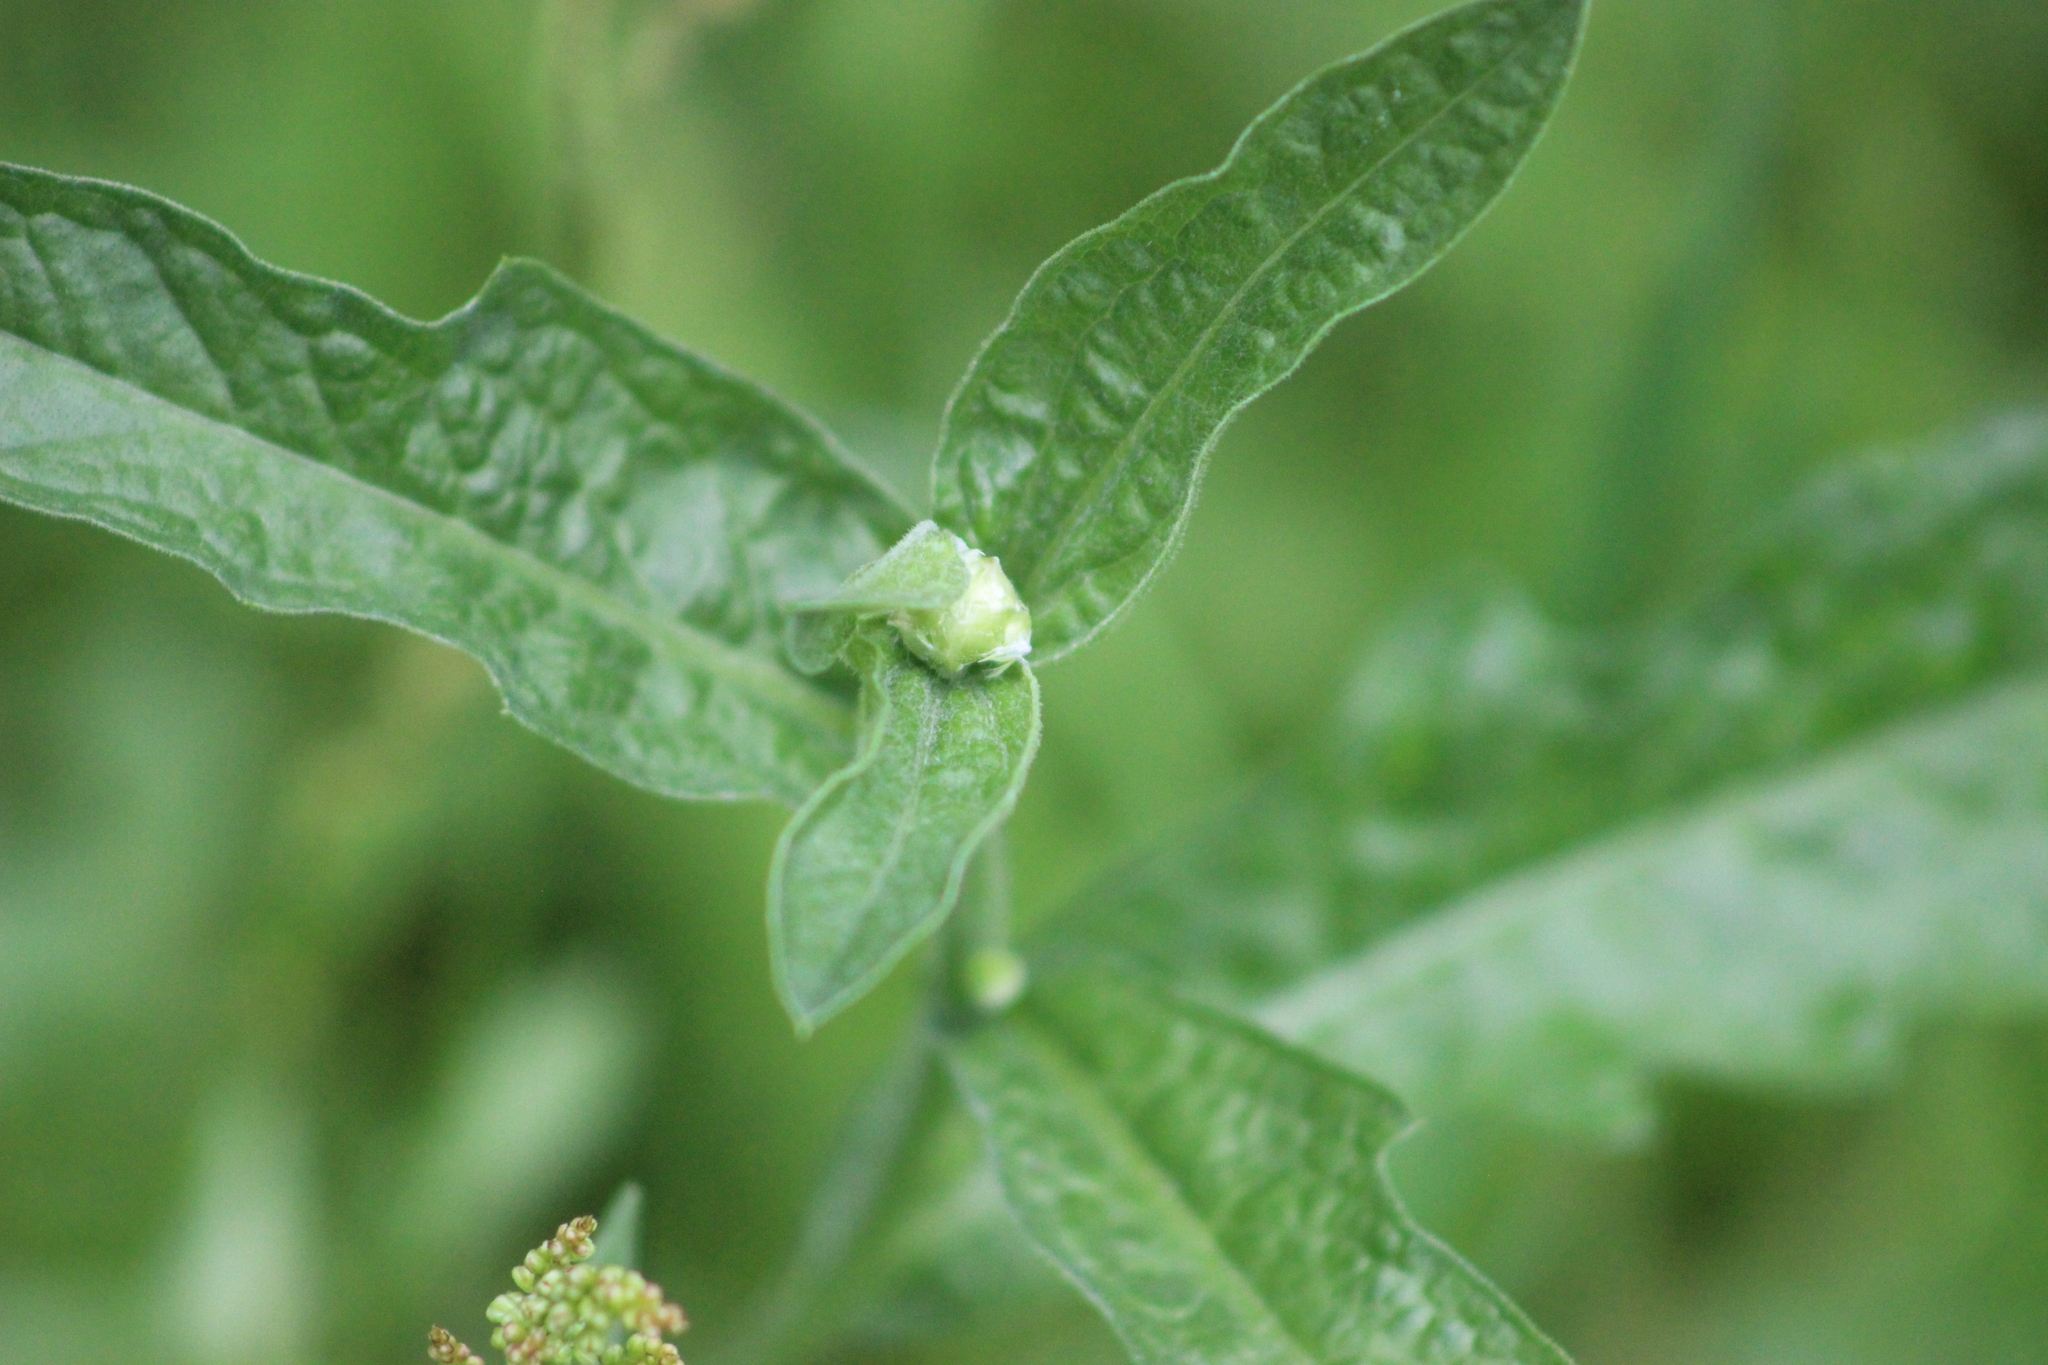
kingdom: Plantae
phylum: Tracheophyta
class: Magnoliopsida
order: Asterales
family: Asteraceae
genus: Centaurea
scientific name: Centaurea jacea
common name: Brown knapweed
